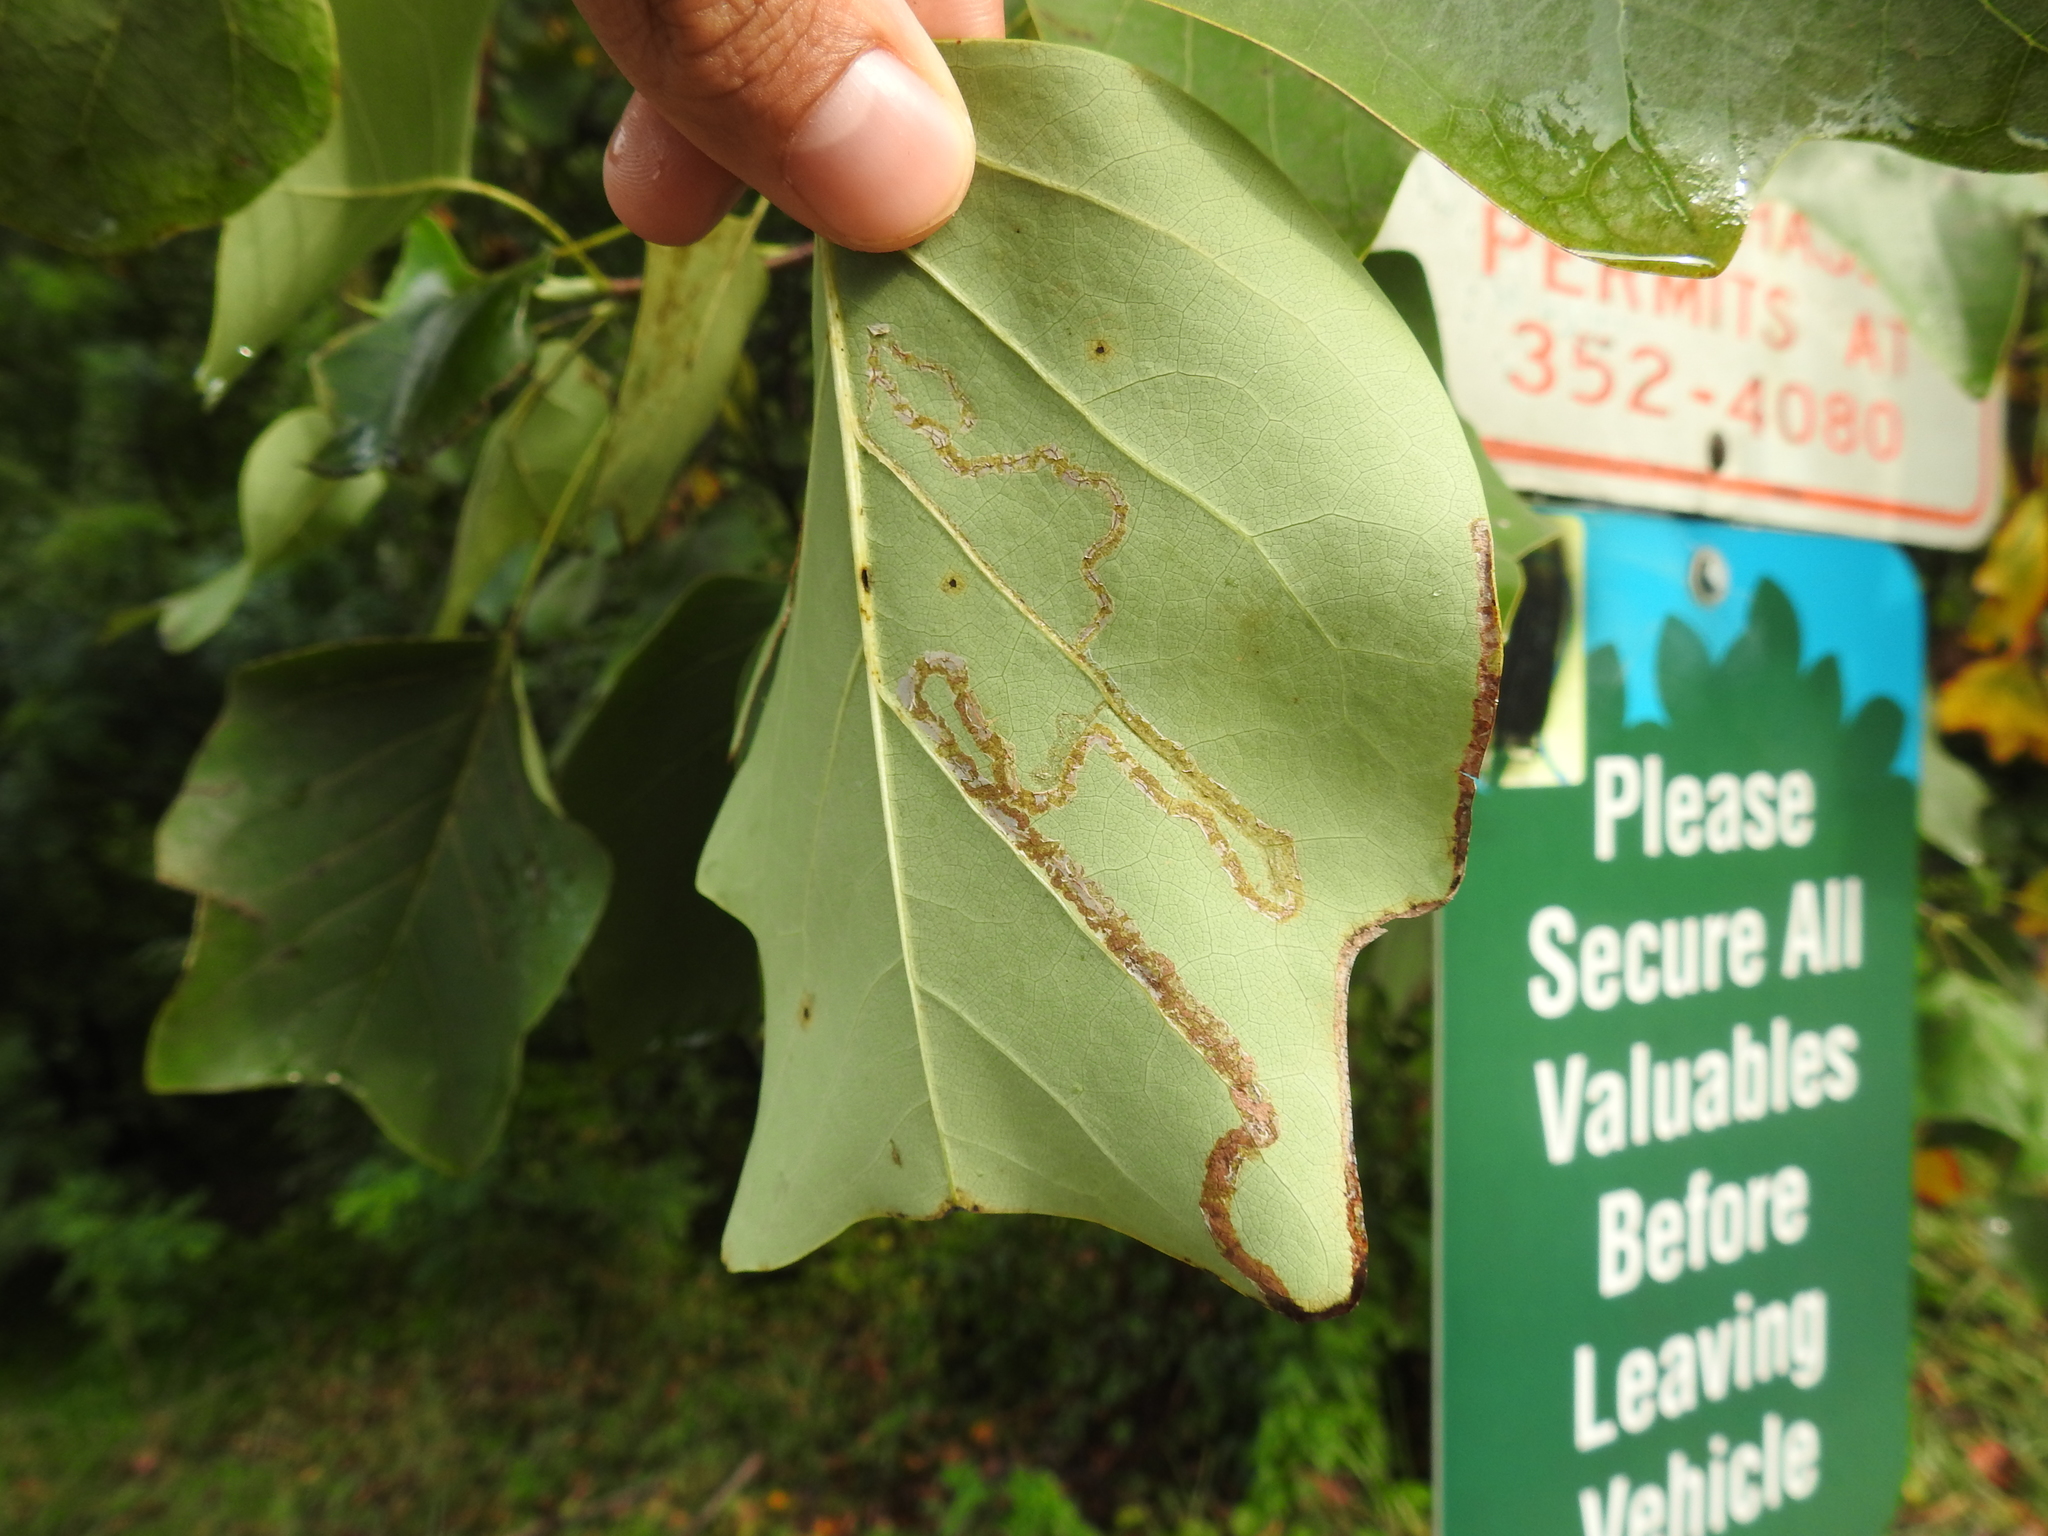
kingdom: Animalia
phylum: Arthropoda
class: Insecta
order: Lepidoptera
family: Gracillariidae
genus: Phyllocnistis
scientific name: Phyllocnistis liriodendronella
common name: Tulip tree leaf miner
